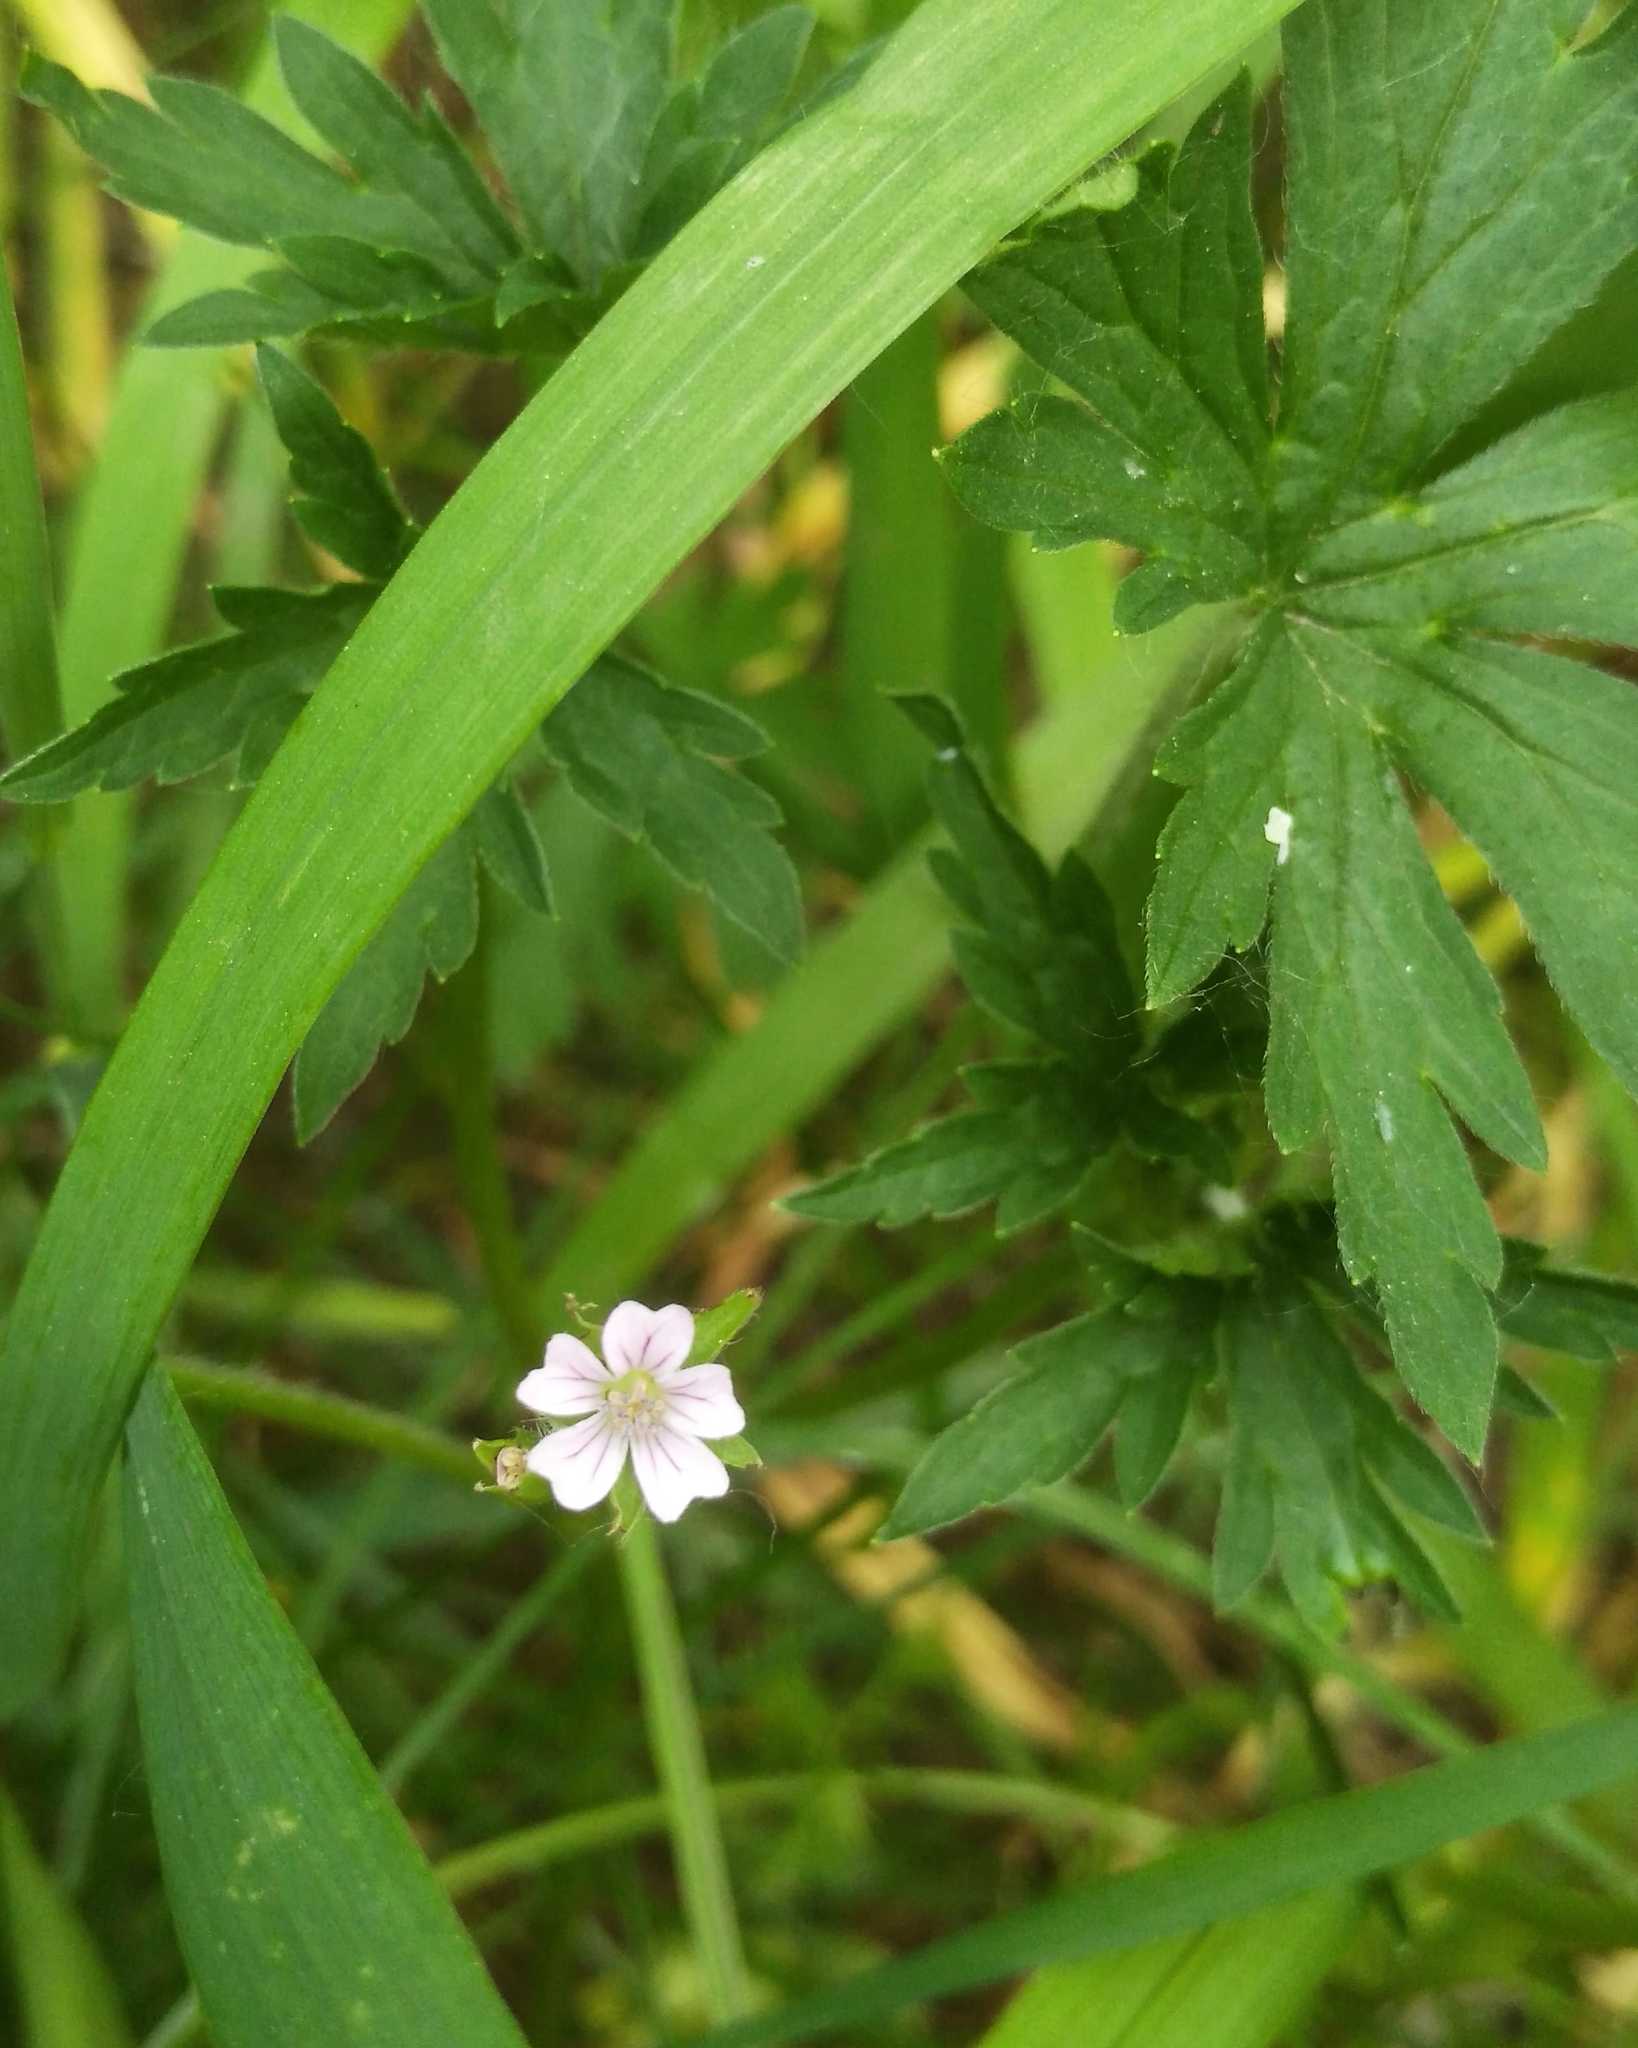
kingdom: Plantae
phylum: Tracheophyta
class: Magnoliopsida
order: Geraniales
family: Geraniaceae
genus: Geranium
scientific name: Geranium sibiricum
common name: Siberian crane's-bill
